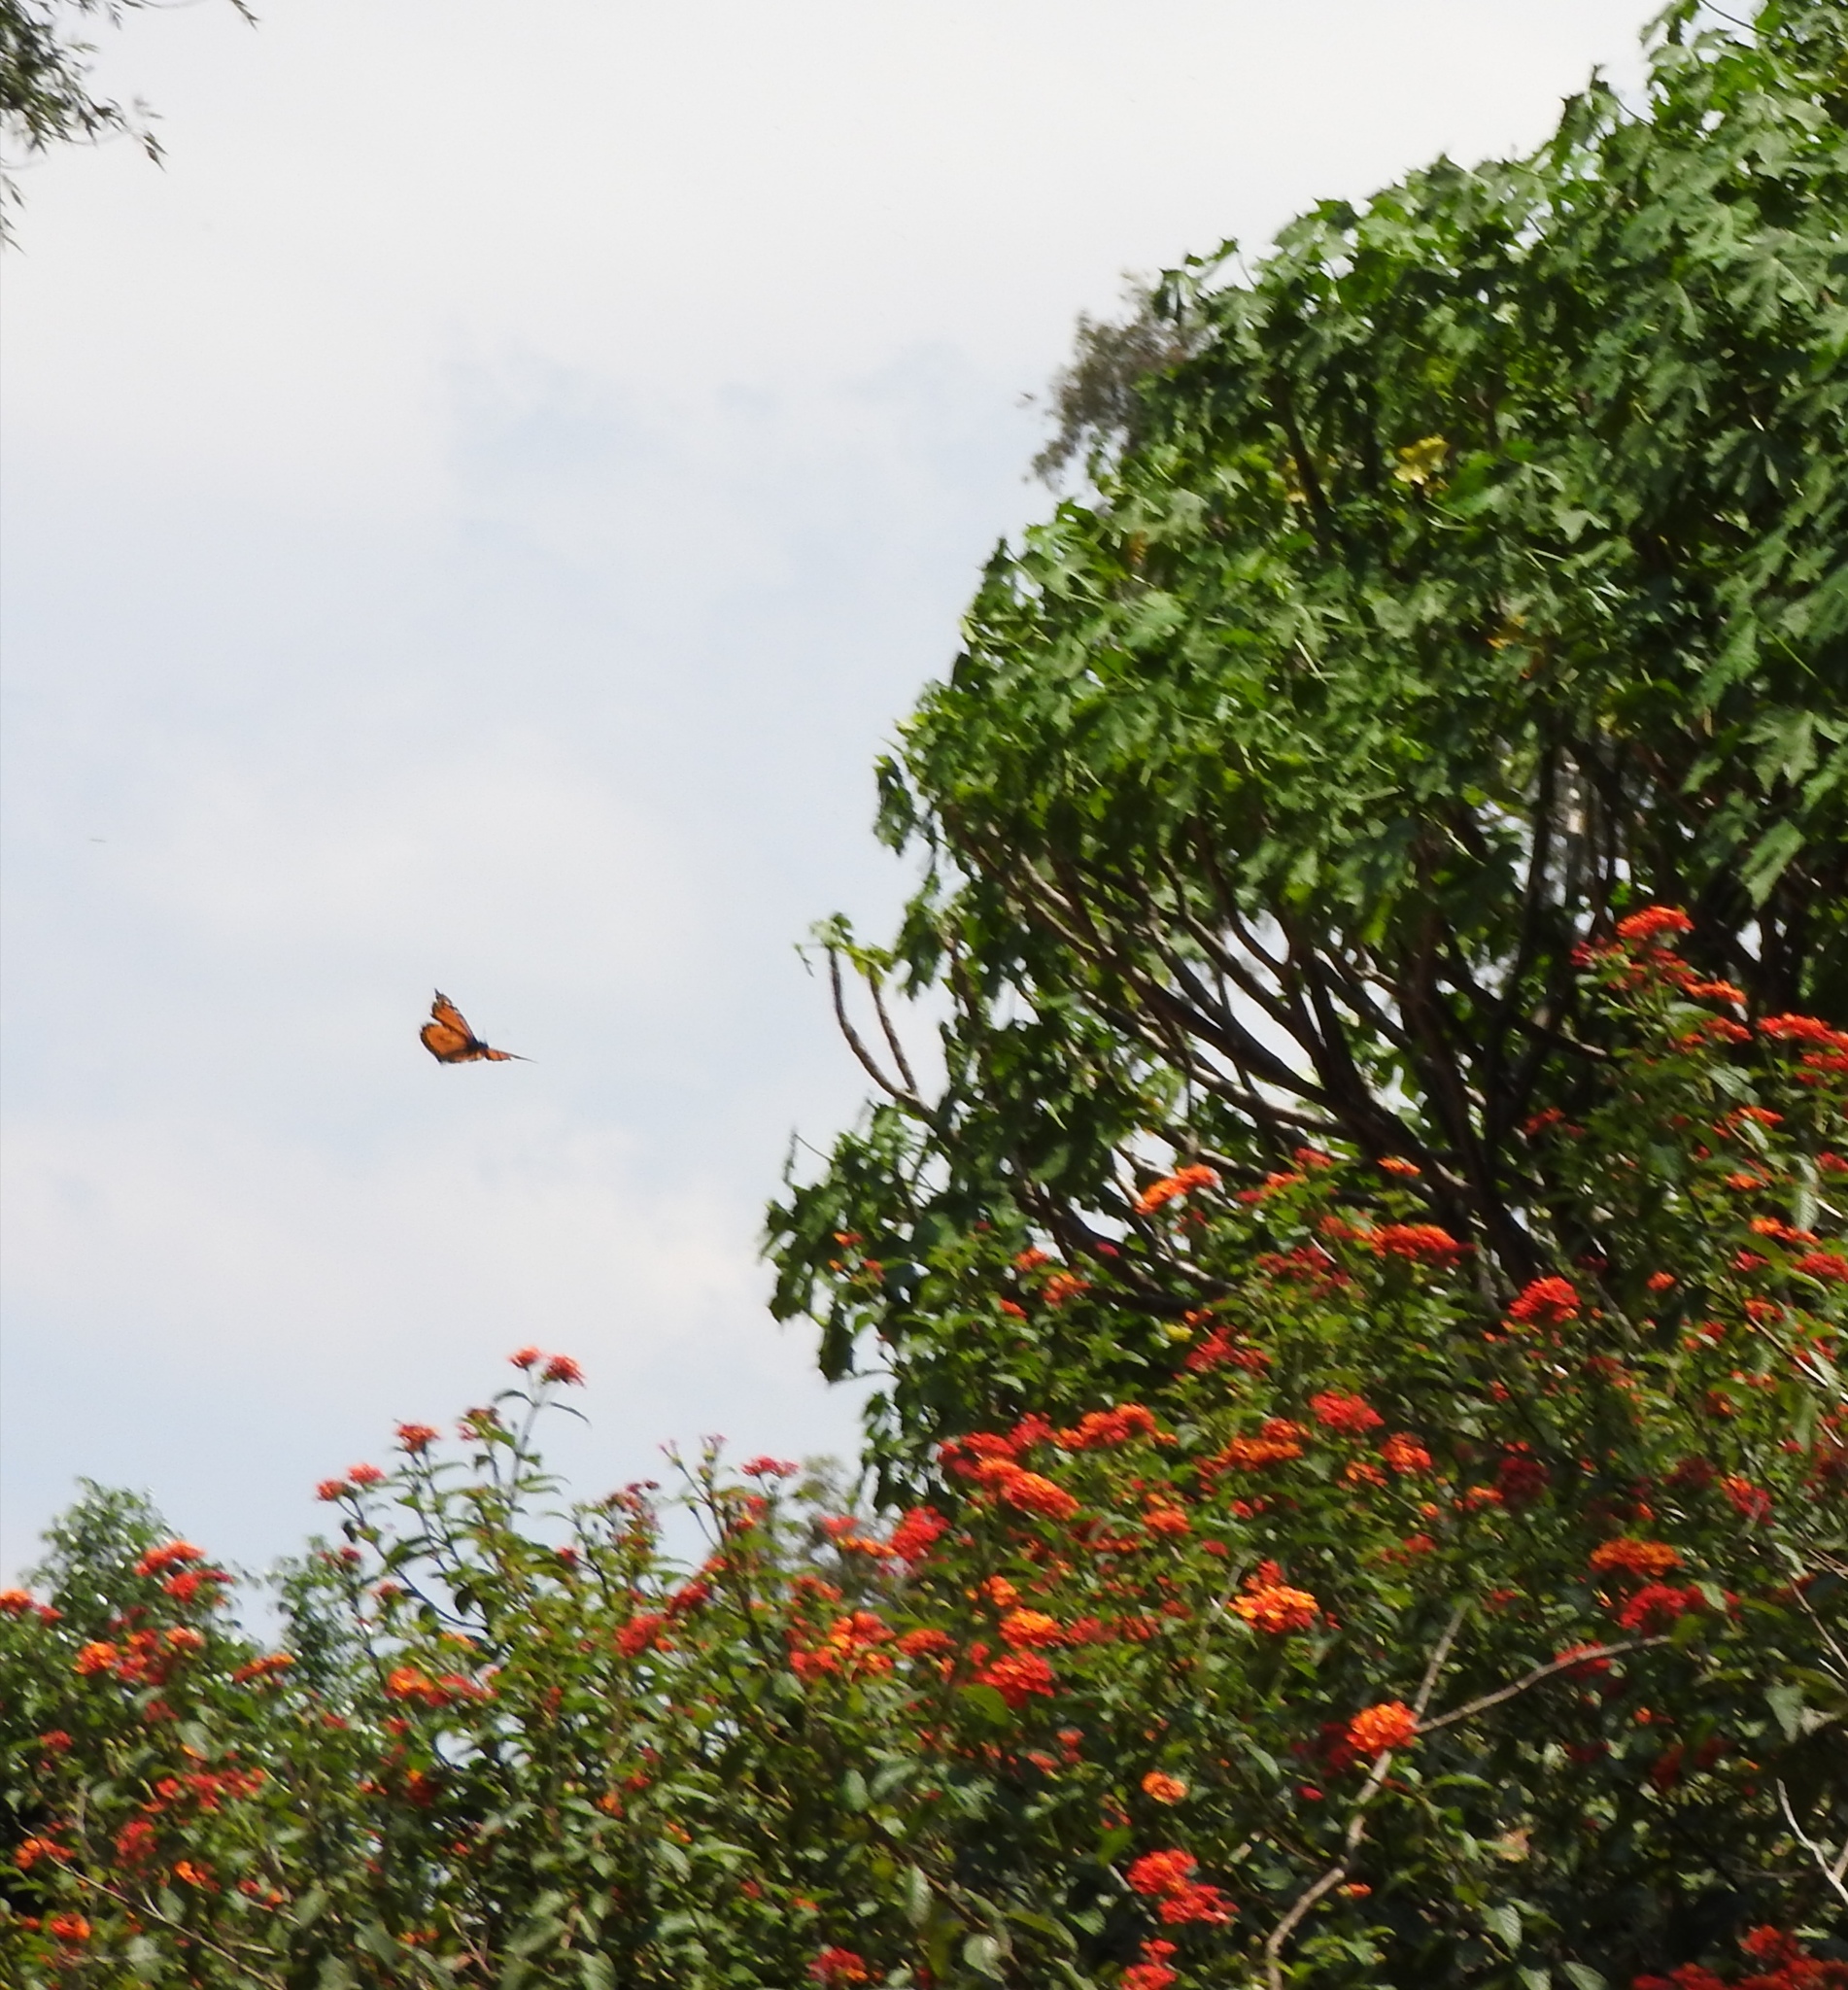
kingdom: Animalia
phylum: Arthropoda
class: Insecta
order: Lepidoptera
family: Nymphalidae
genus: Danaus
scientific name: Danaus plexippus
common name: Monarch
